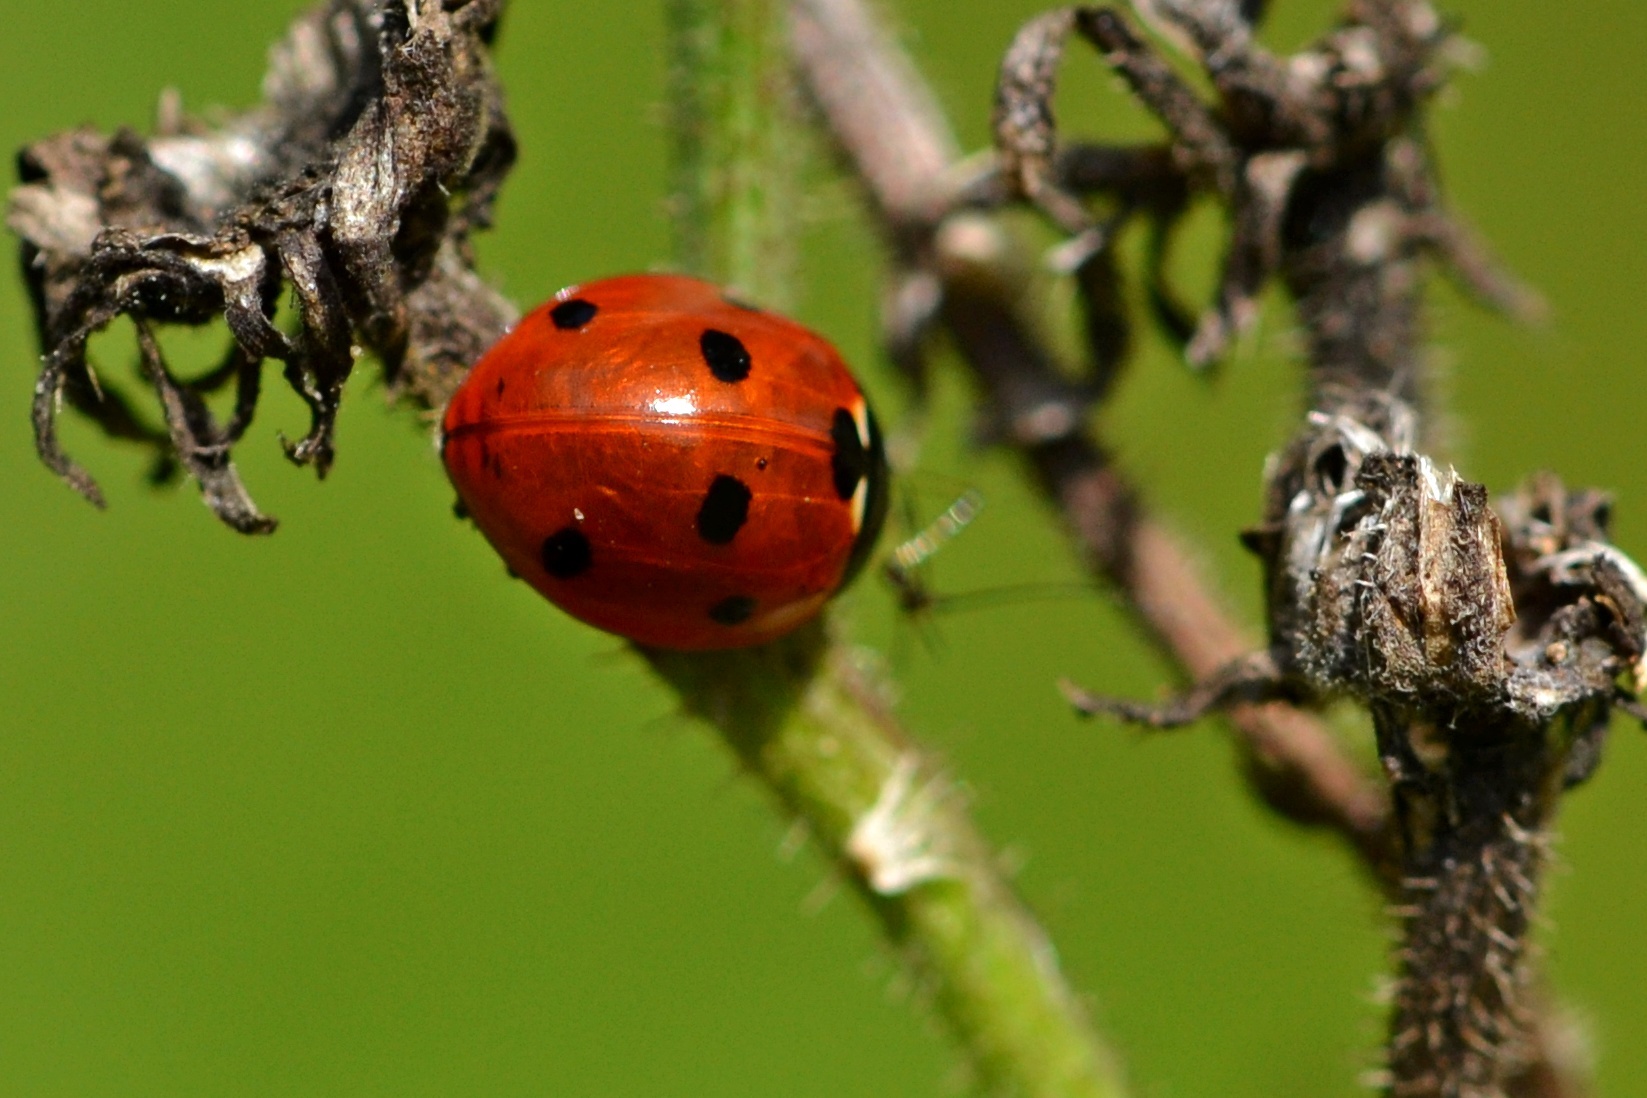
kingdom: Animalia
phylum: Arthropoda
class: Insecta
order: Coleoptera
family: Coccinellidae
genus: Coccinella
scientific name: Coccinella septempunctata
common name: Sevenspotted lady beetle
